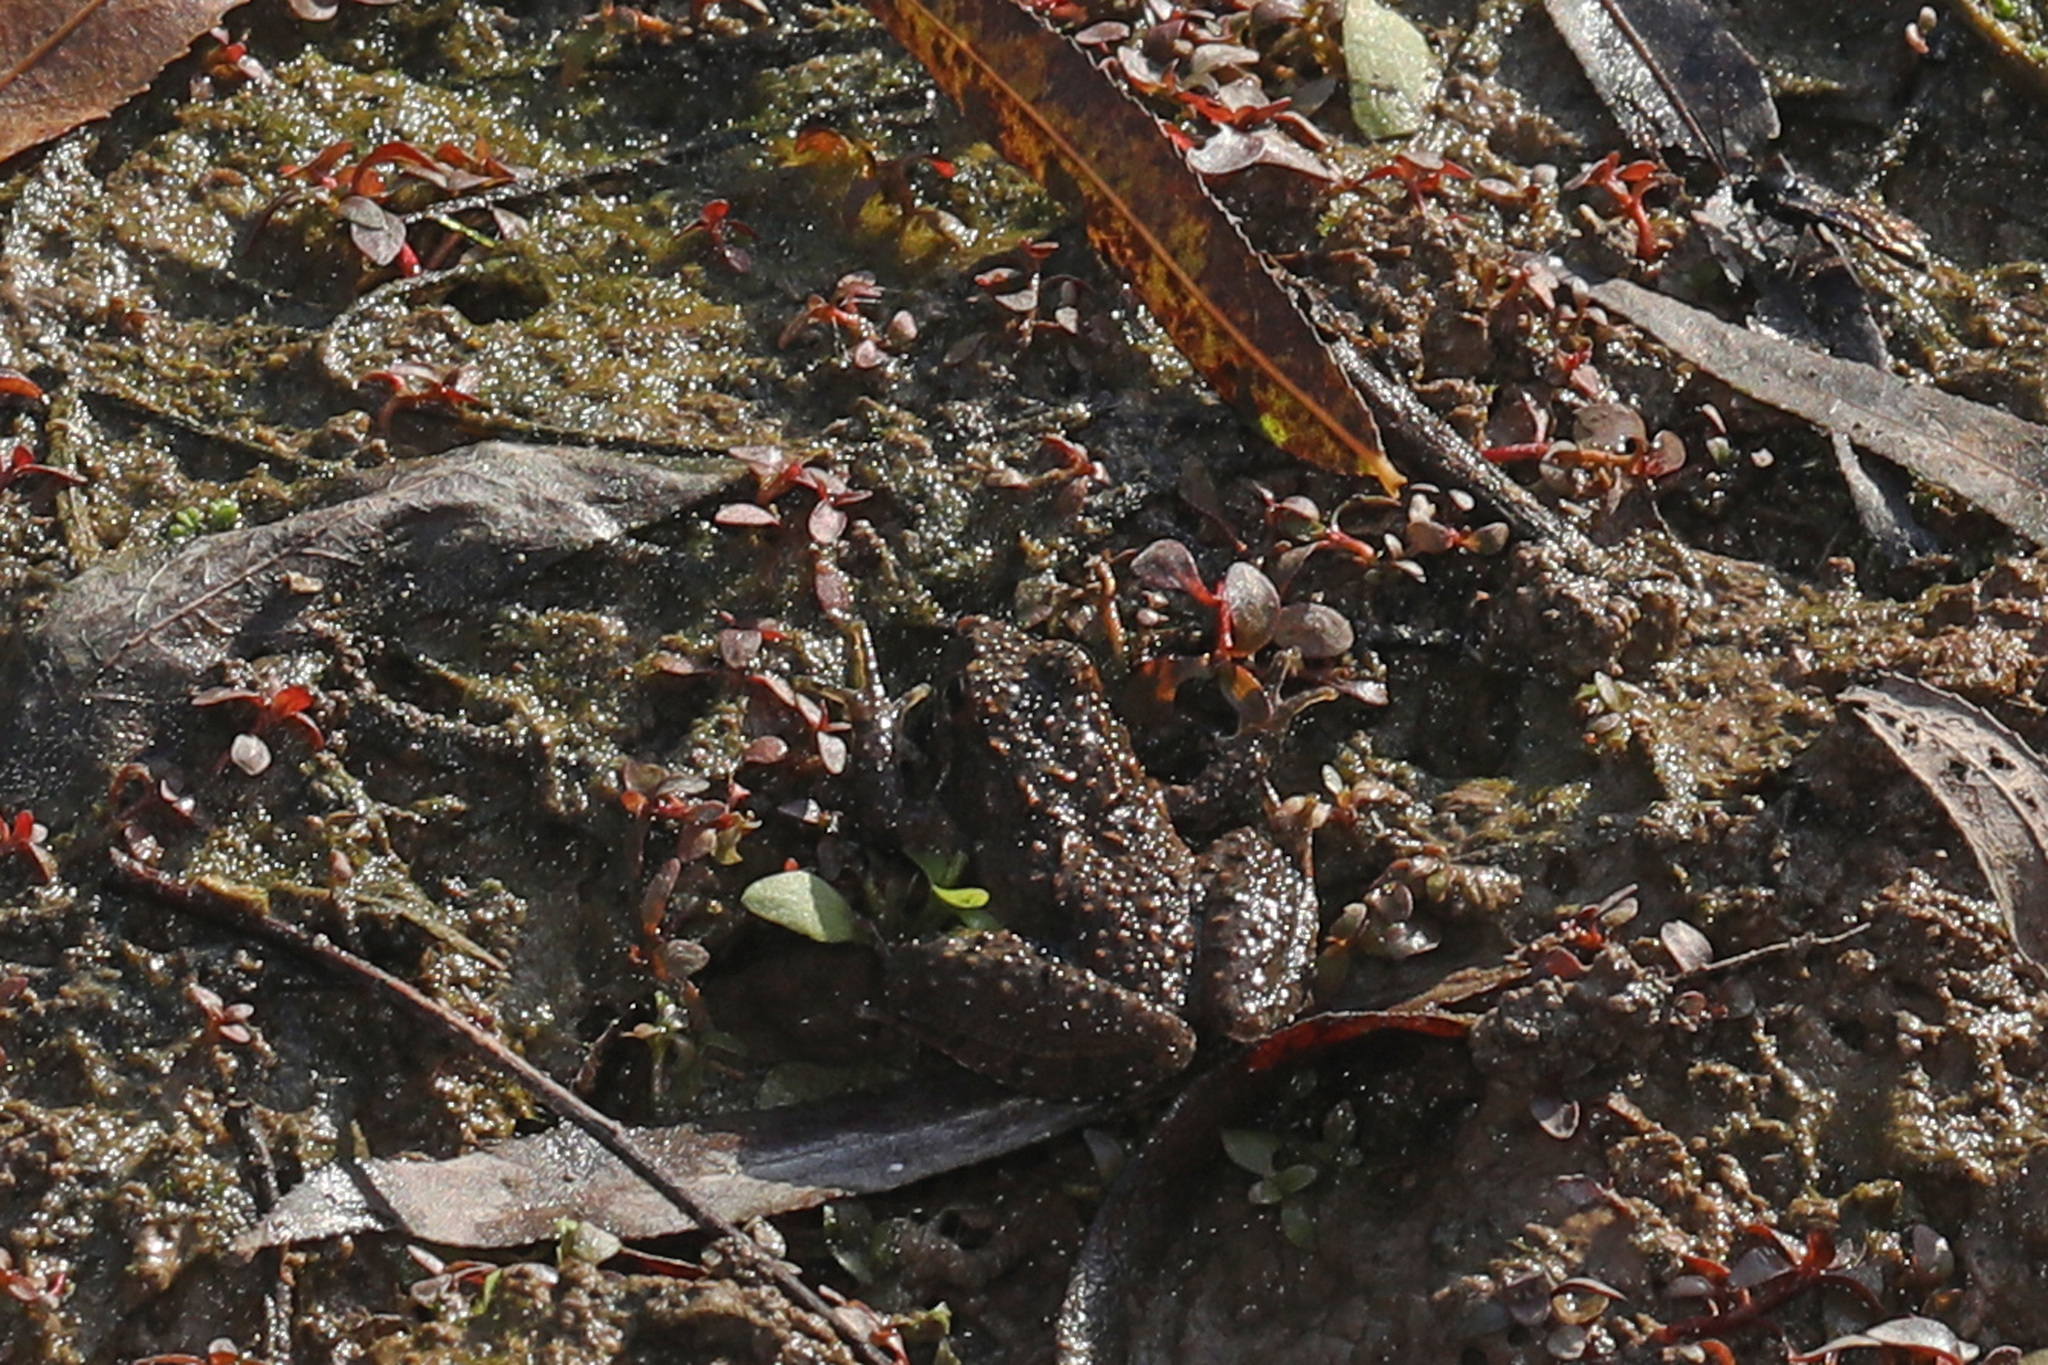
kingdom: Animalia
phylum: Chordata
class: Amphibia
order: Anura
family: Hylidae
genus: Acris
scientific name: Acris crepitans
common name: Northern cricket frog
